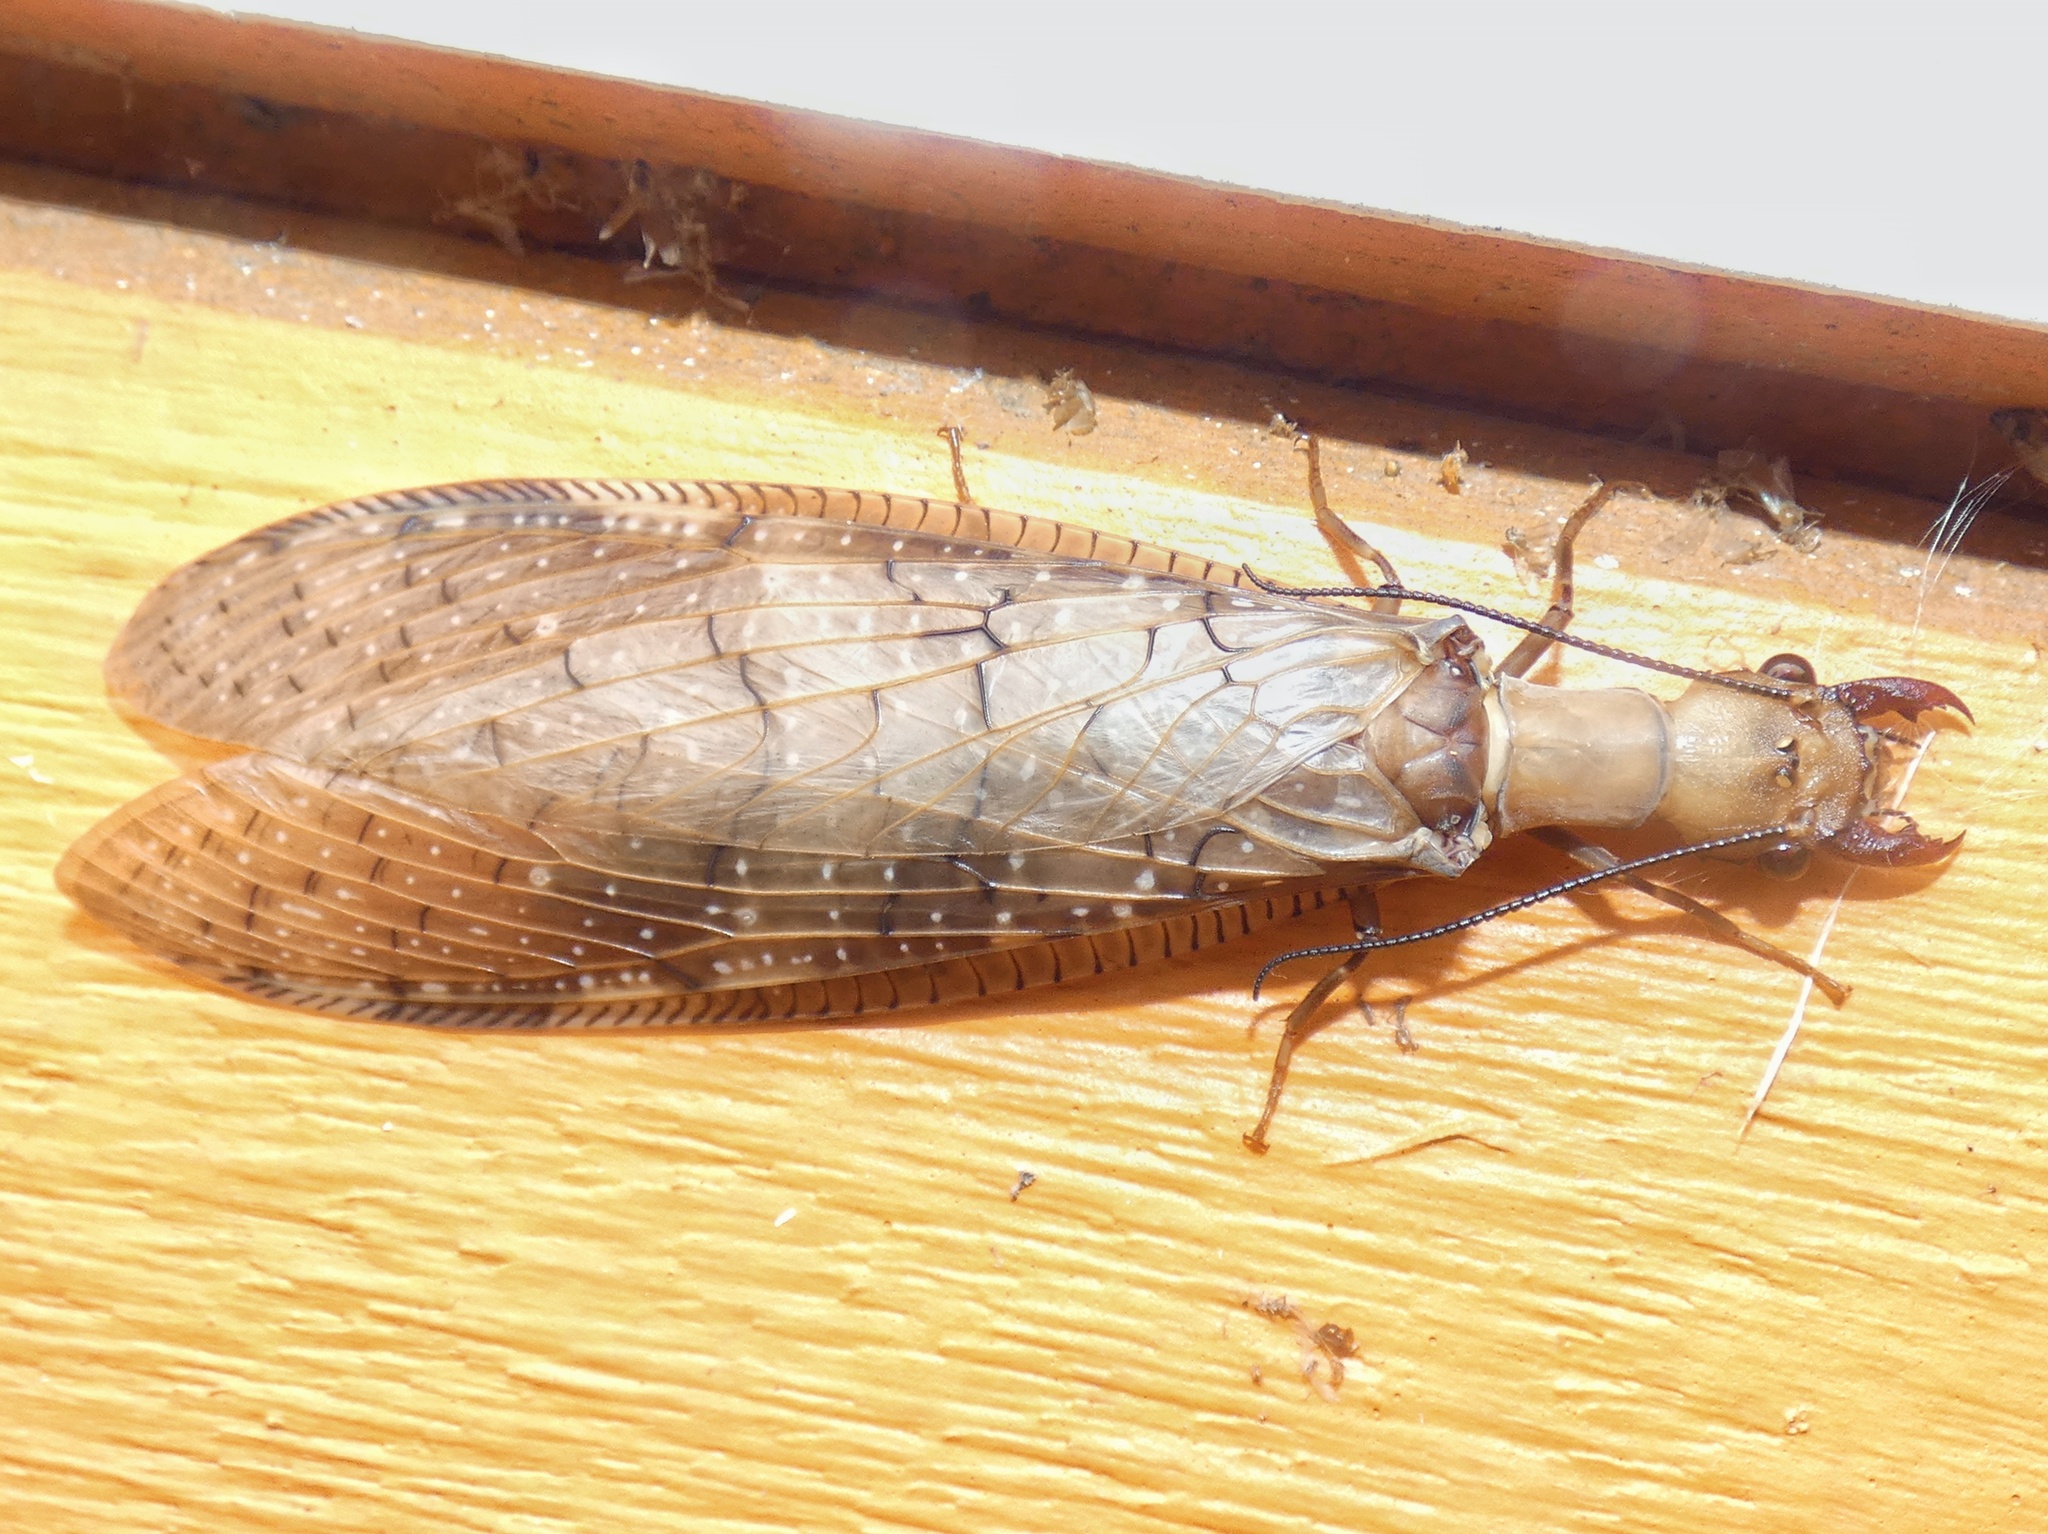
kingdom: Animalia
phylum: Arthropoda
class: Insecta
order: Megaloptera
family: Corydalidae
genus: Corydalus
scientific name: Corydalus peruvianus
